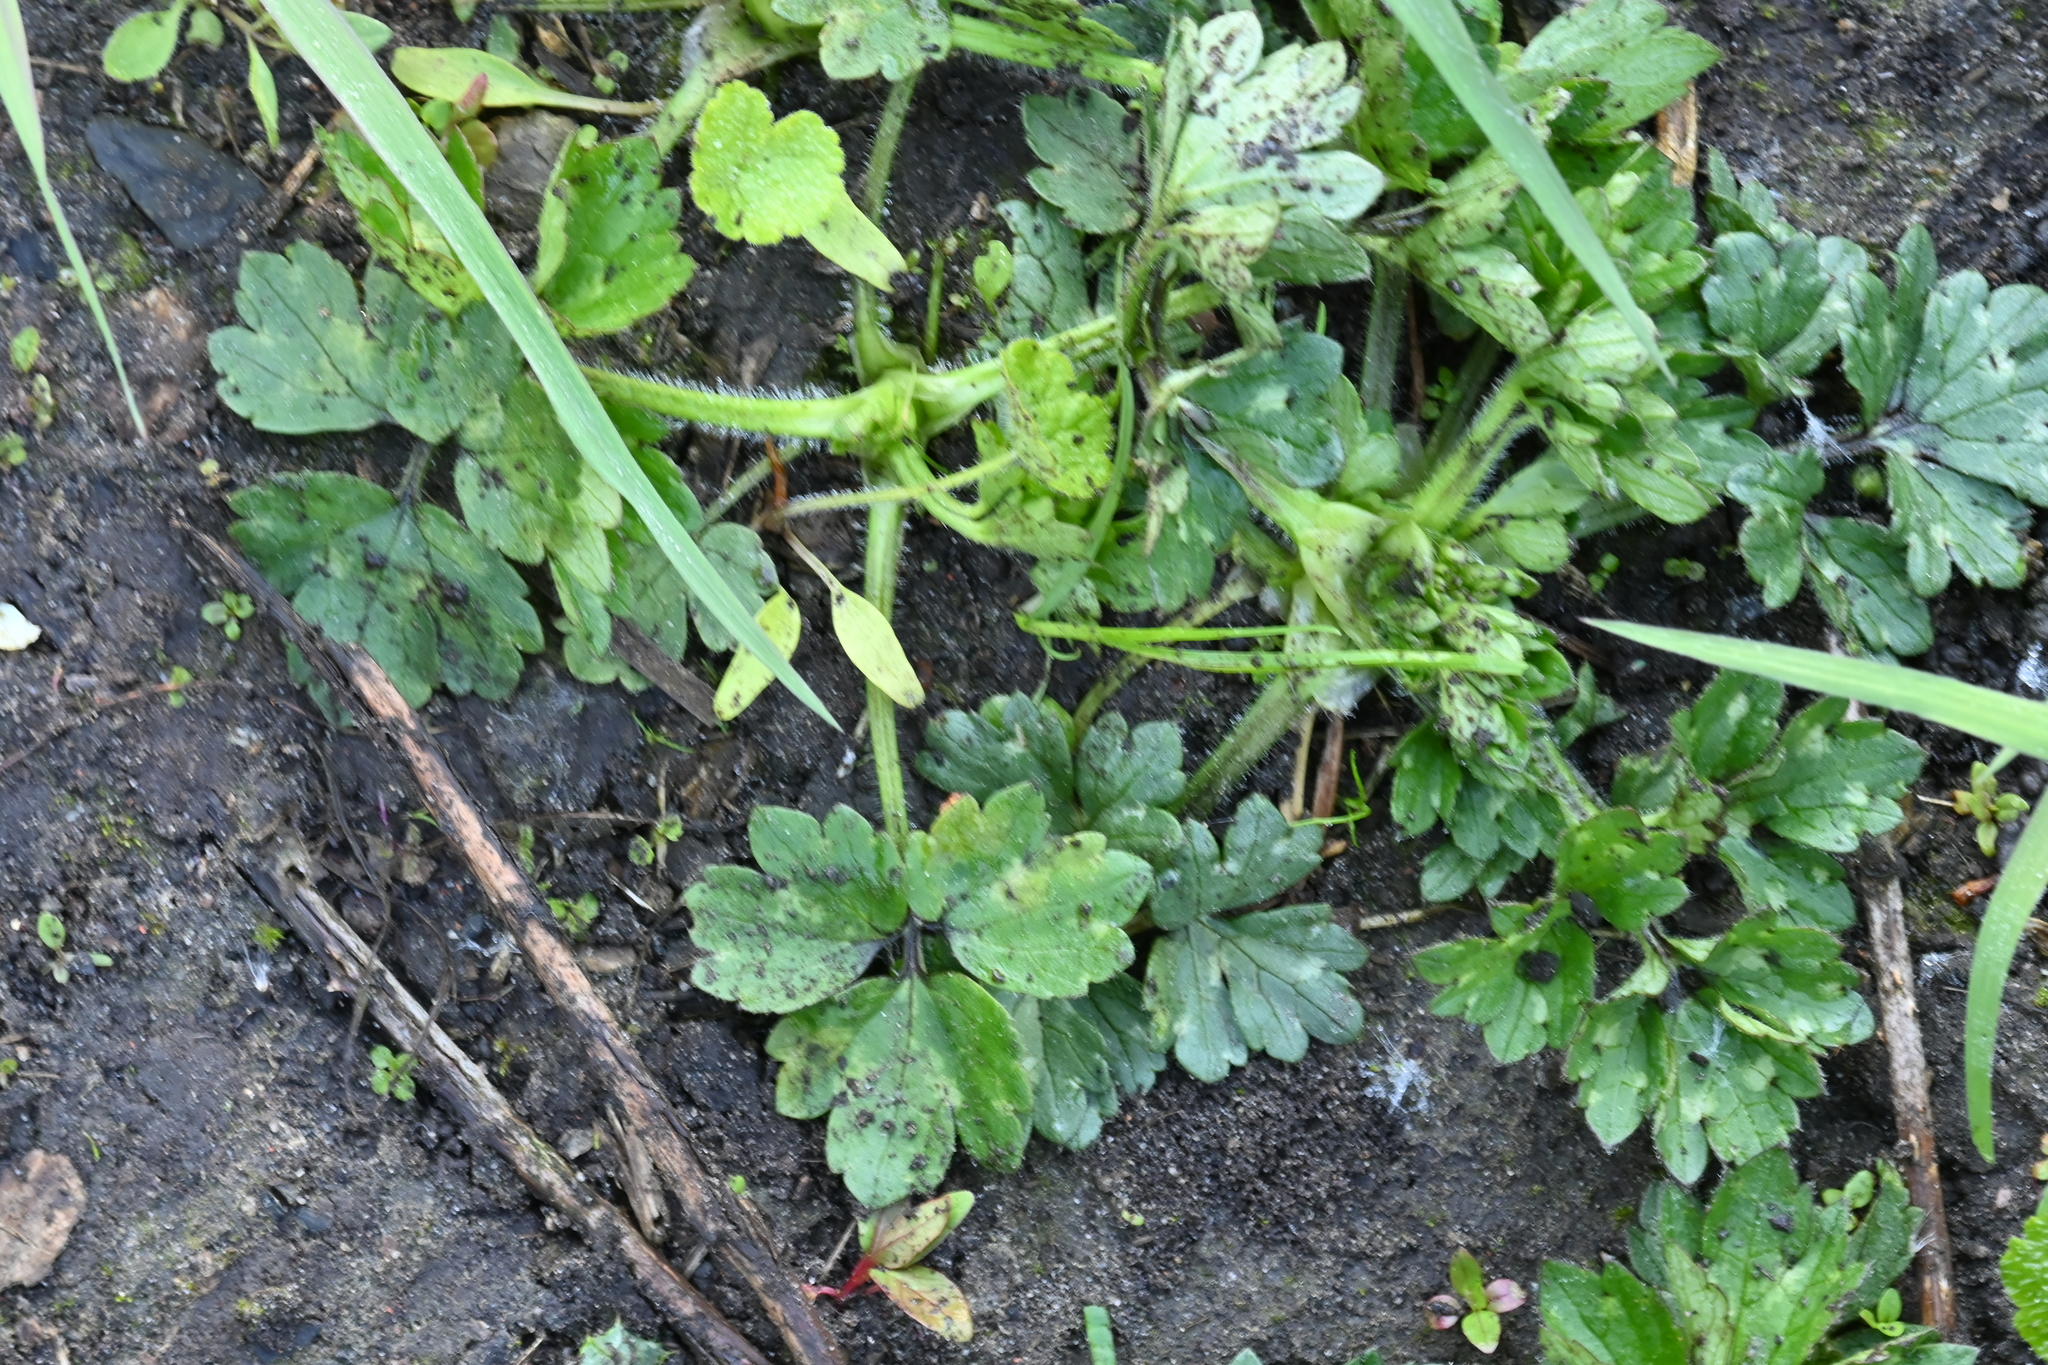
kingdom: Plantae
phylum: Tracheophyta
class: Magnoliopsida
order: Ranunculales
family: Ranunculaceae
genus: Ranunculus
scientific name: Ranunculus repens
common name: Creeping buttercup
